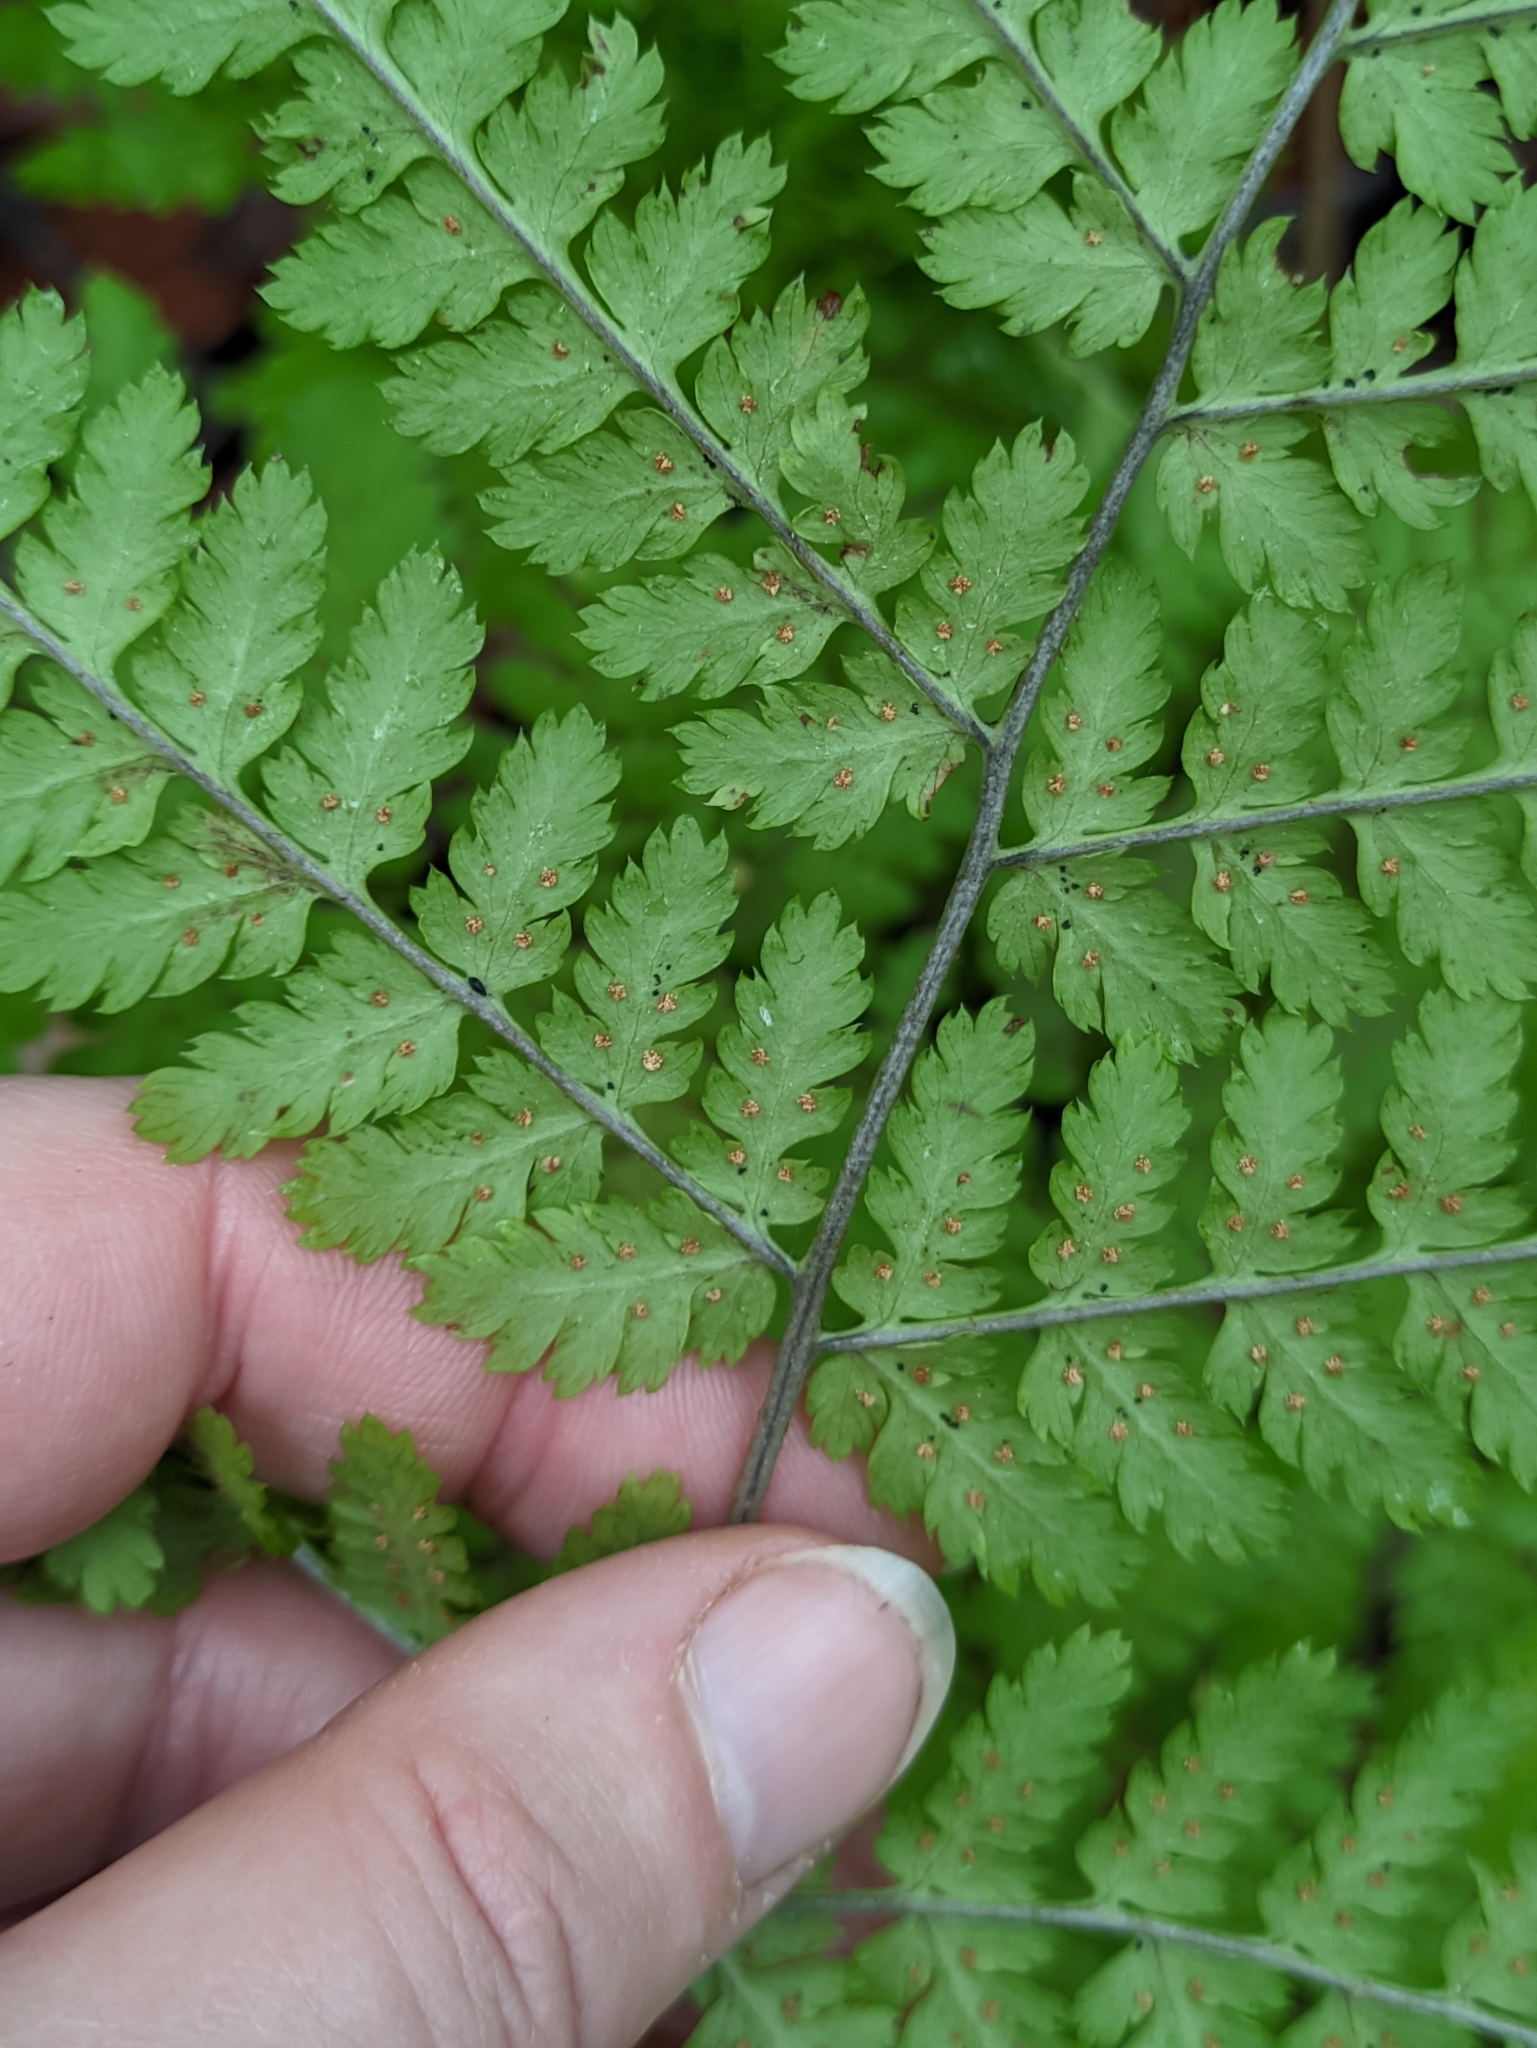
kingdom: Plantae
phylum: Tracheophyta
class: Polypodiopsida
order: Polypodiales
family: Dryopteridaceae
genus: Dryopteris
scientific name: Dryopteris expansa
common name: Northern buckler fern
